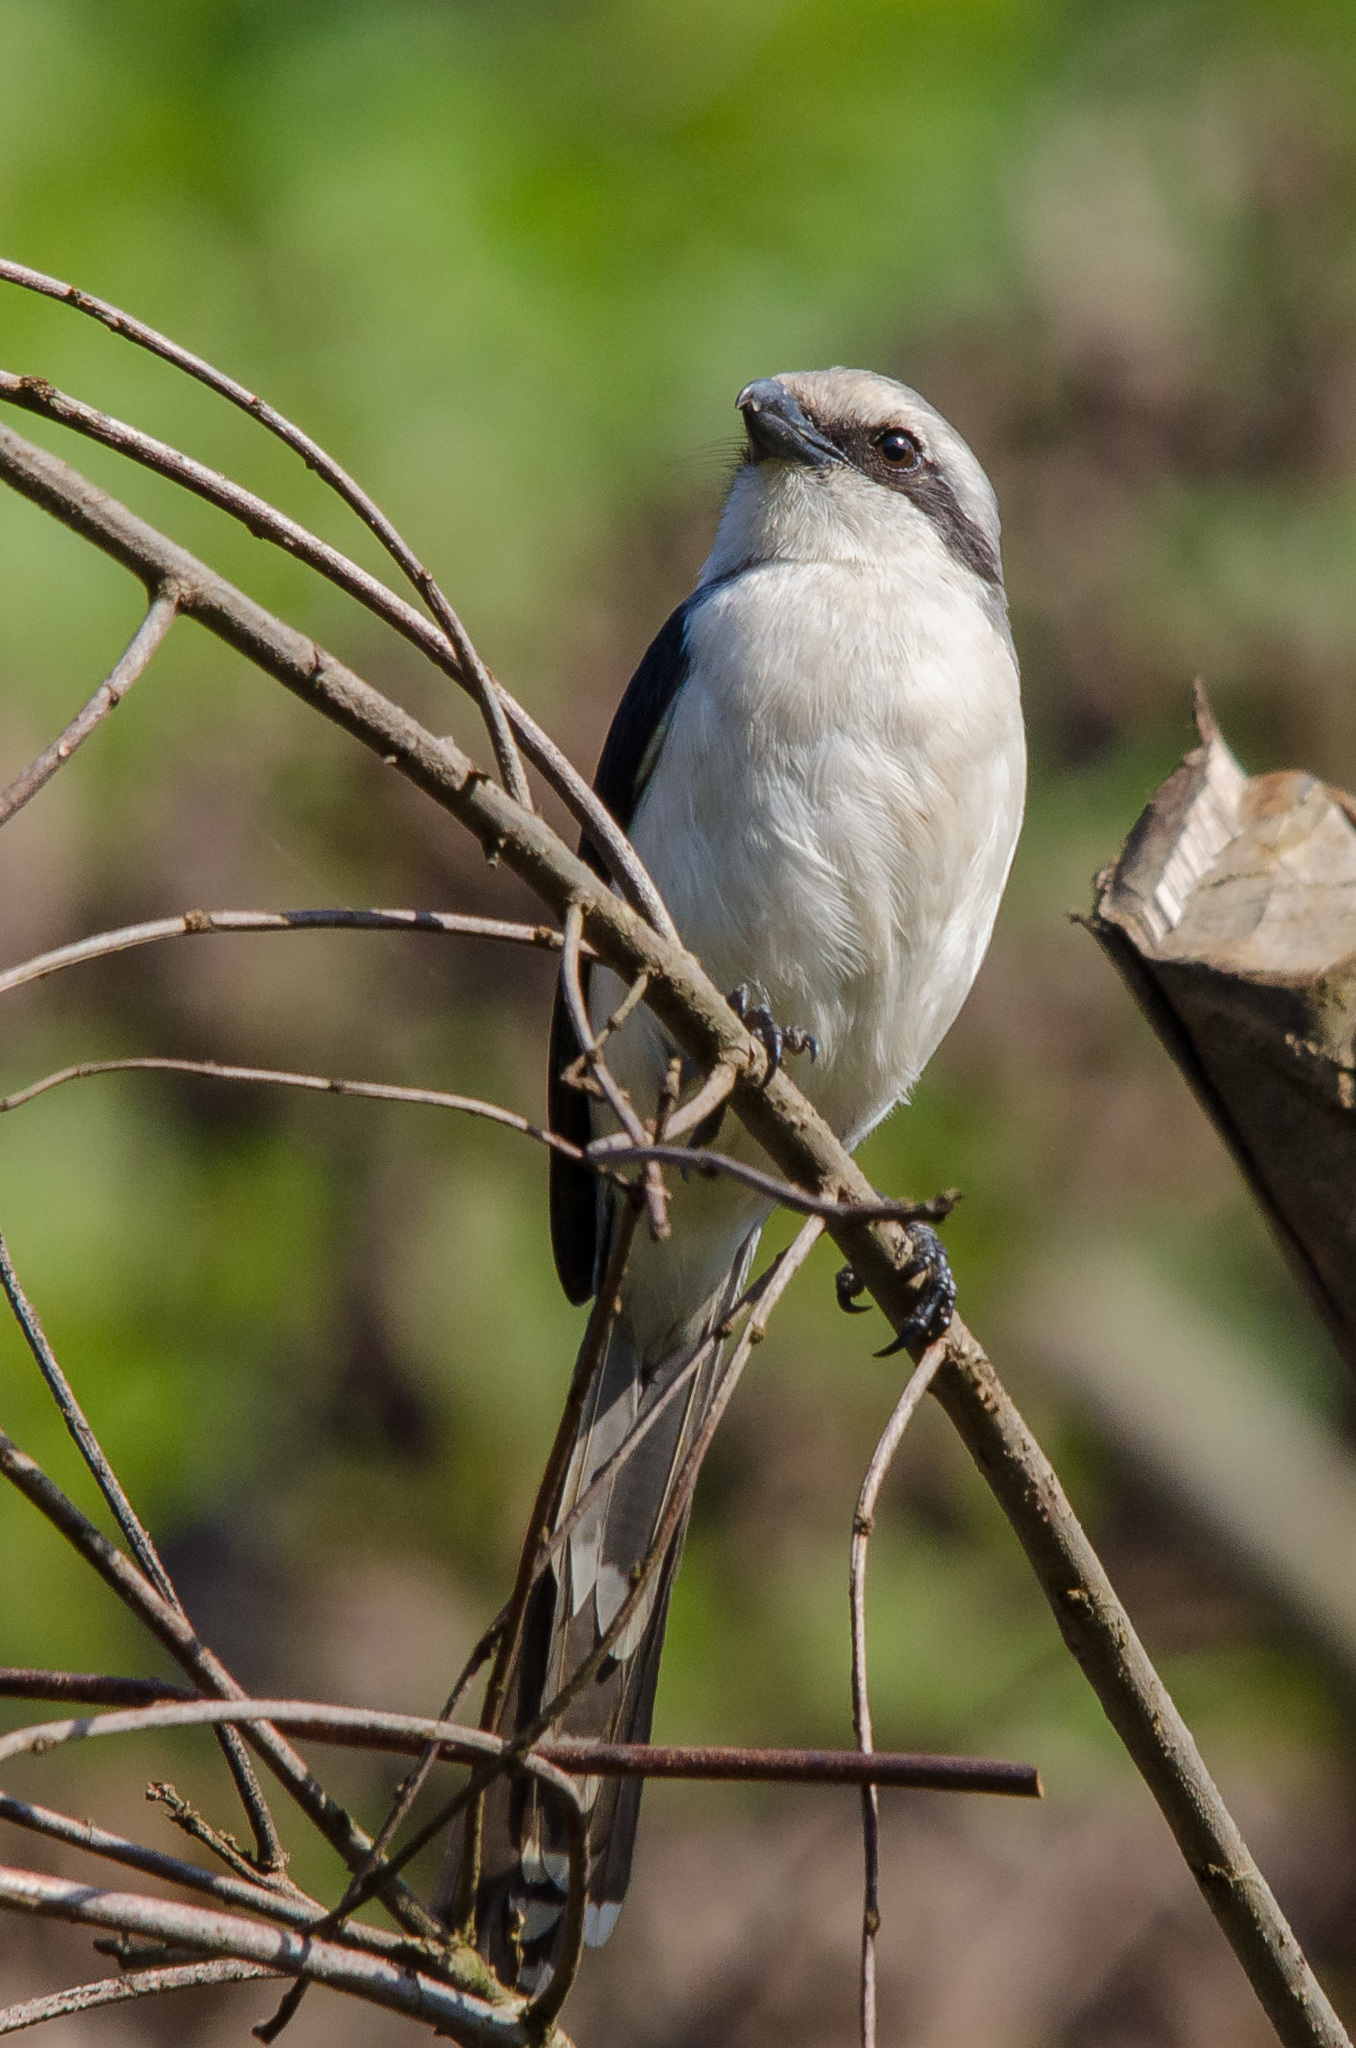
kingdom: Animalia
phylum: Chordata
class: Aves
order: Passeriformes
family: Laniidae
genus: Lanius
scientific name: Lanius mackinnoni
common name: Mackinnon's shrike
